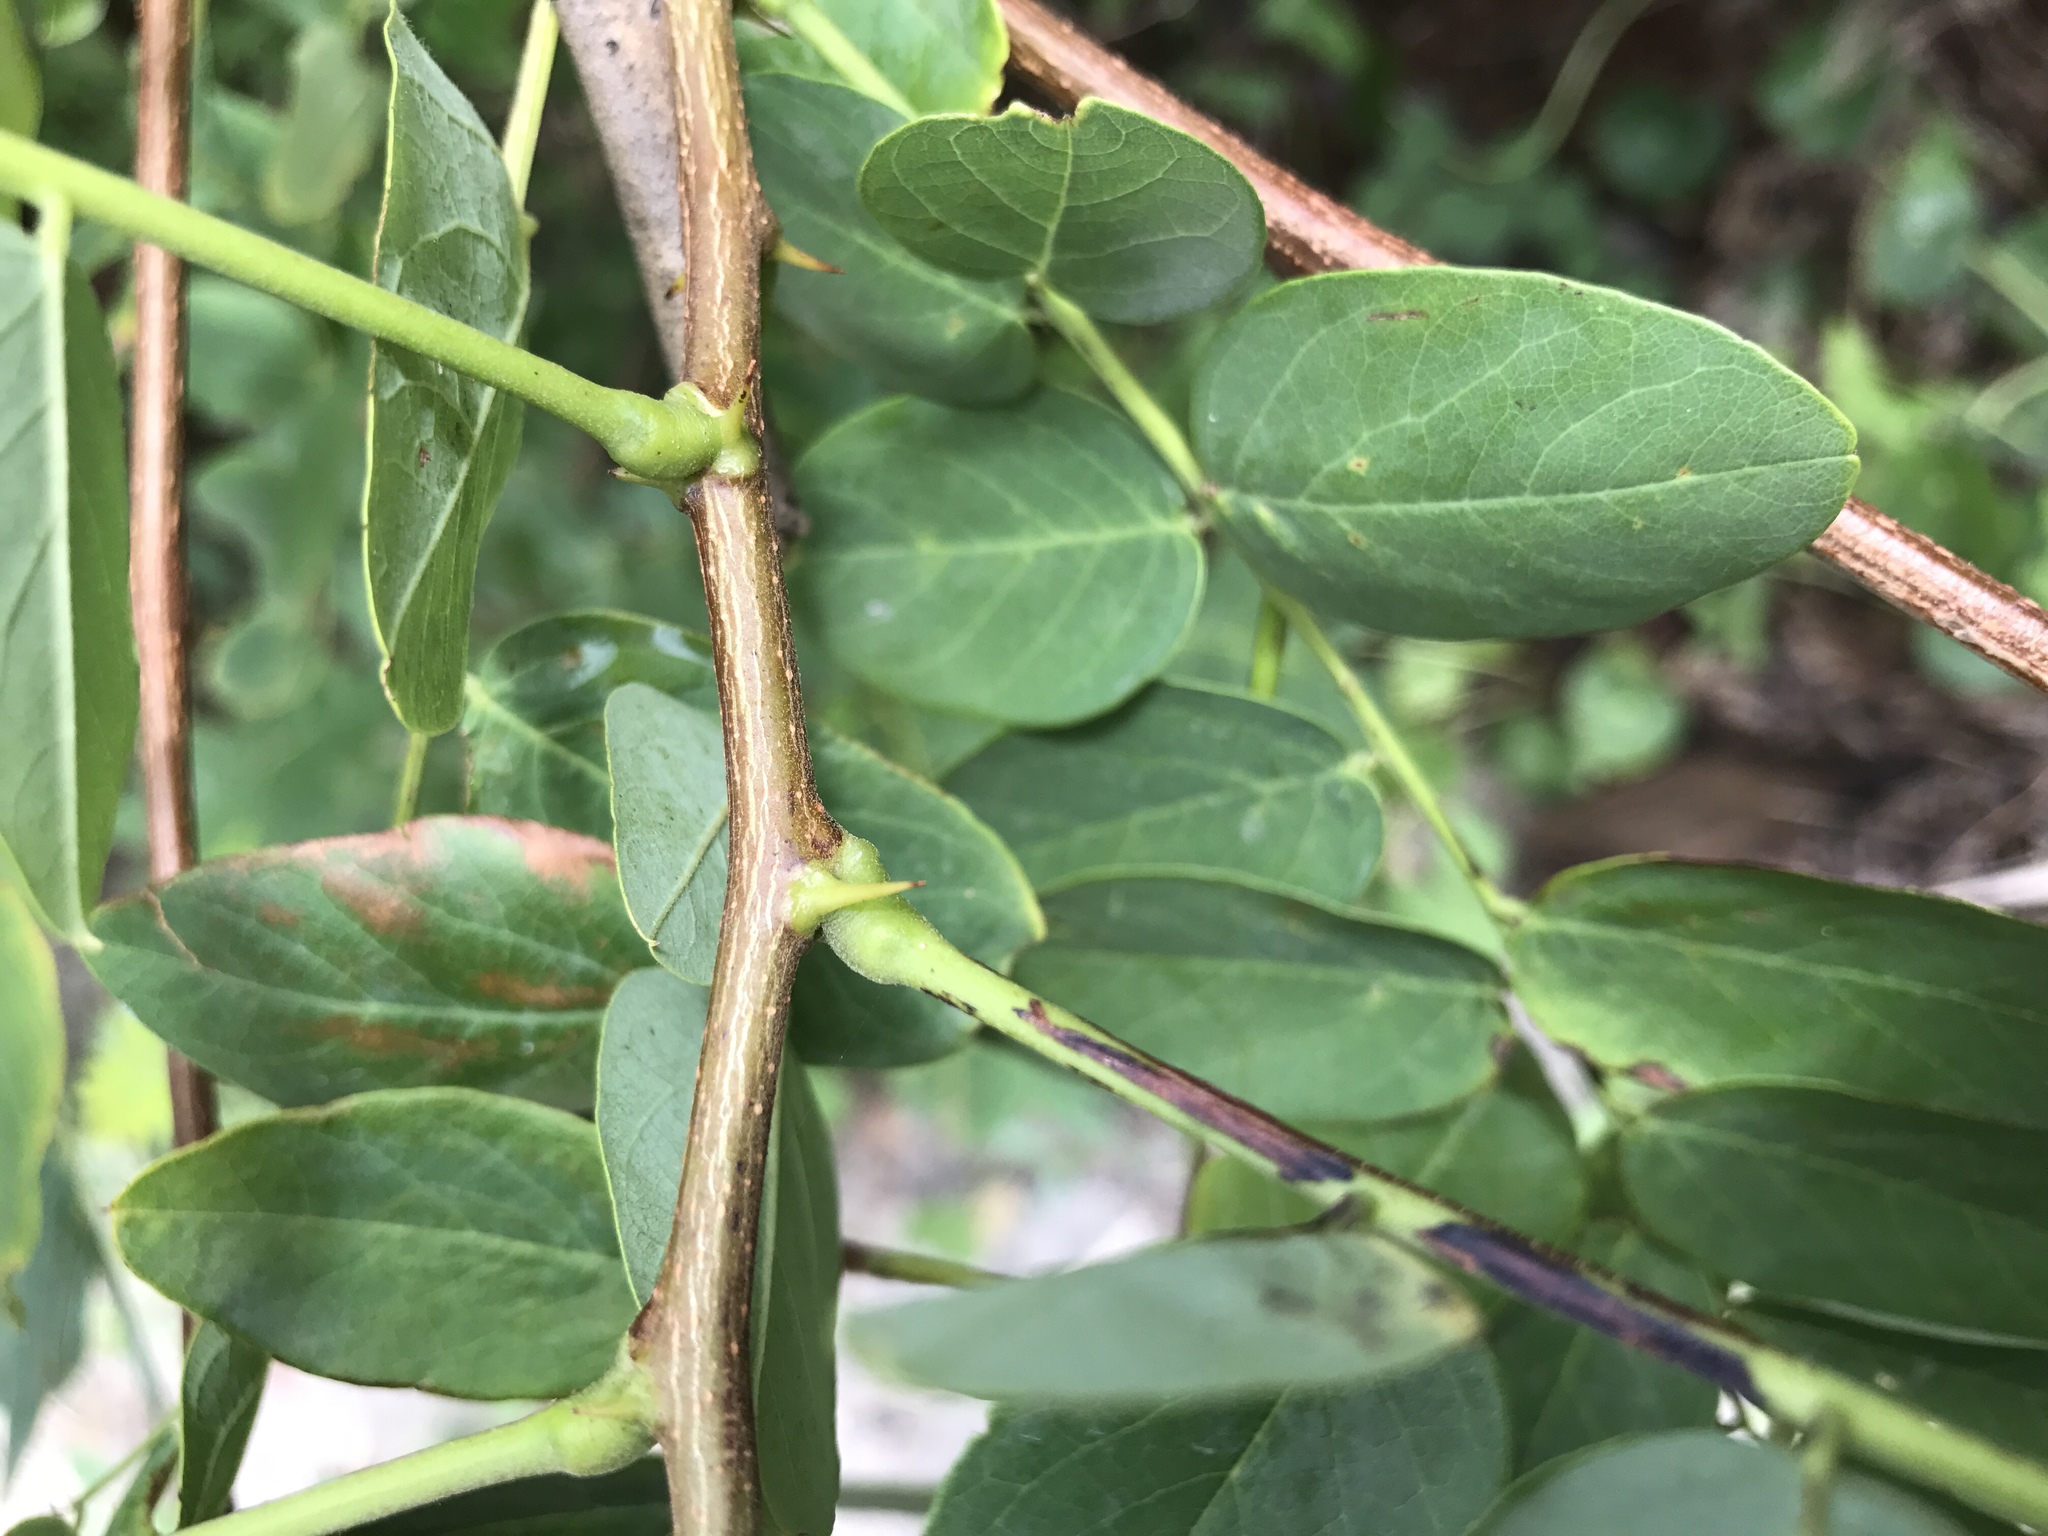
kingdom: Plantae
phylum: Tracheophyta
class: Magnoliopsida
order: Fabales
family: Fabaceae
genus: Robinia
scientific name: Robinia pseudoacacia
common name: Black locust
